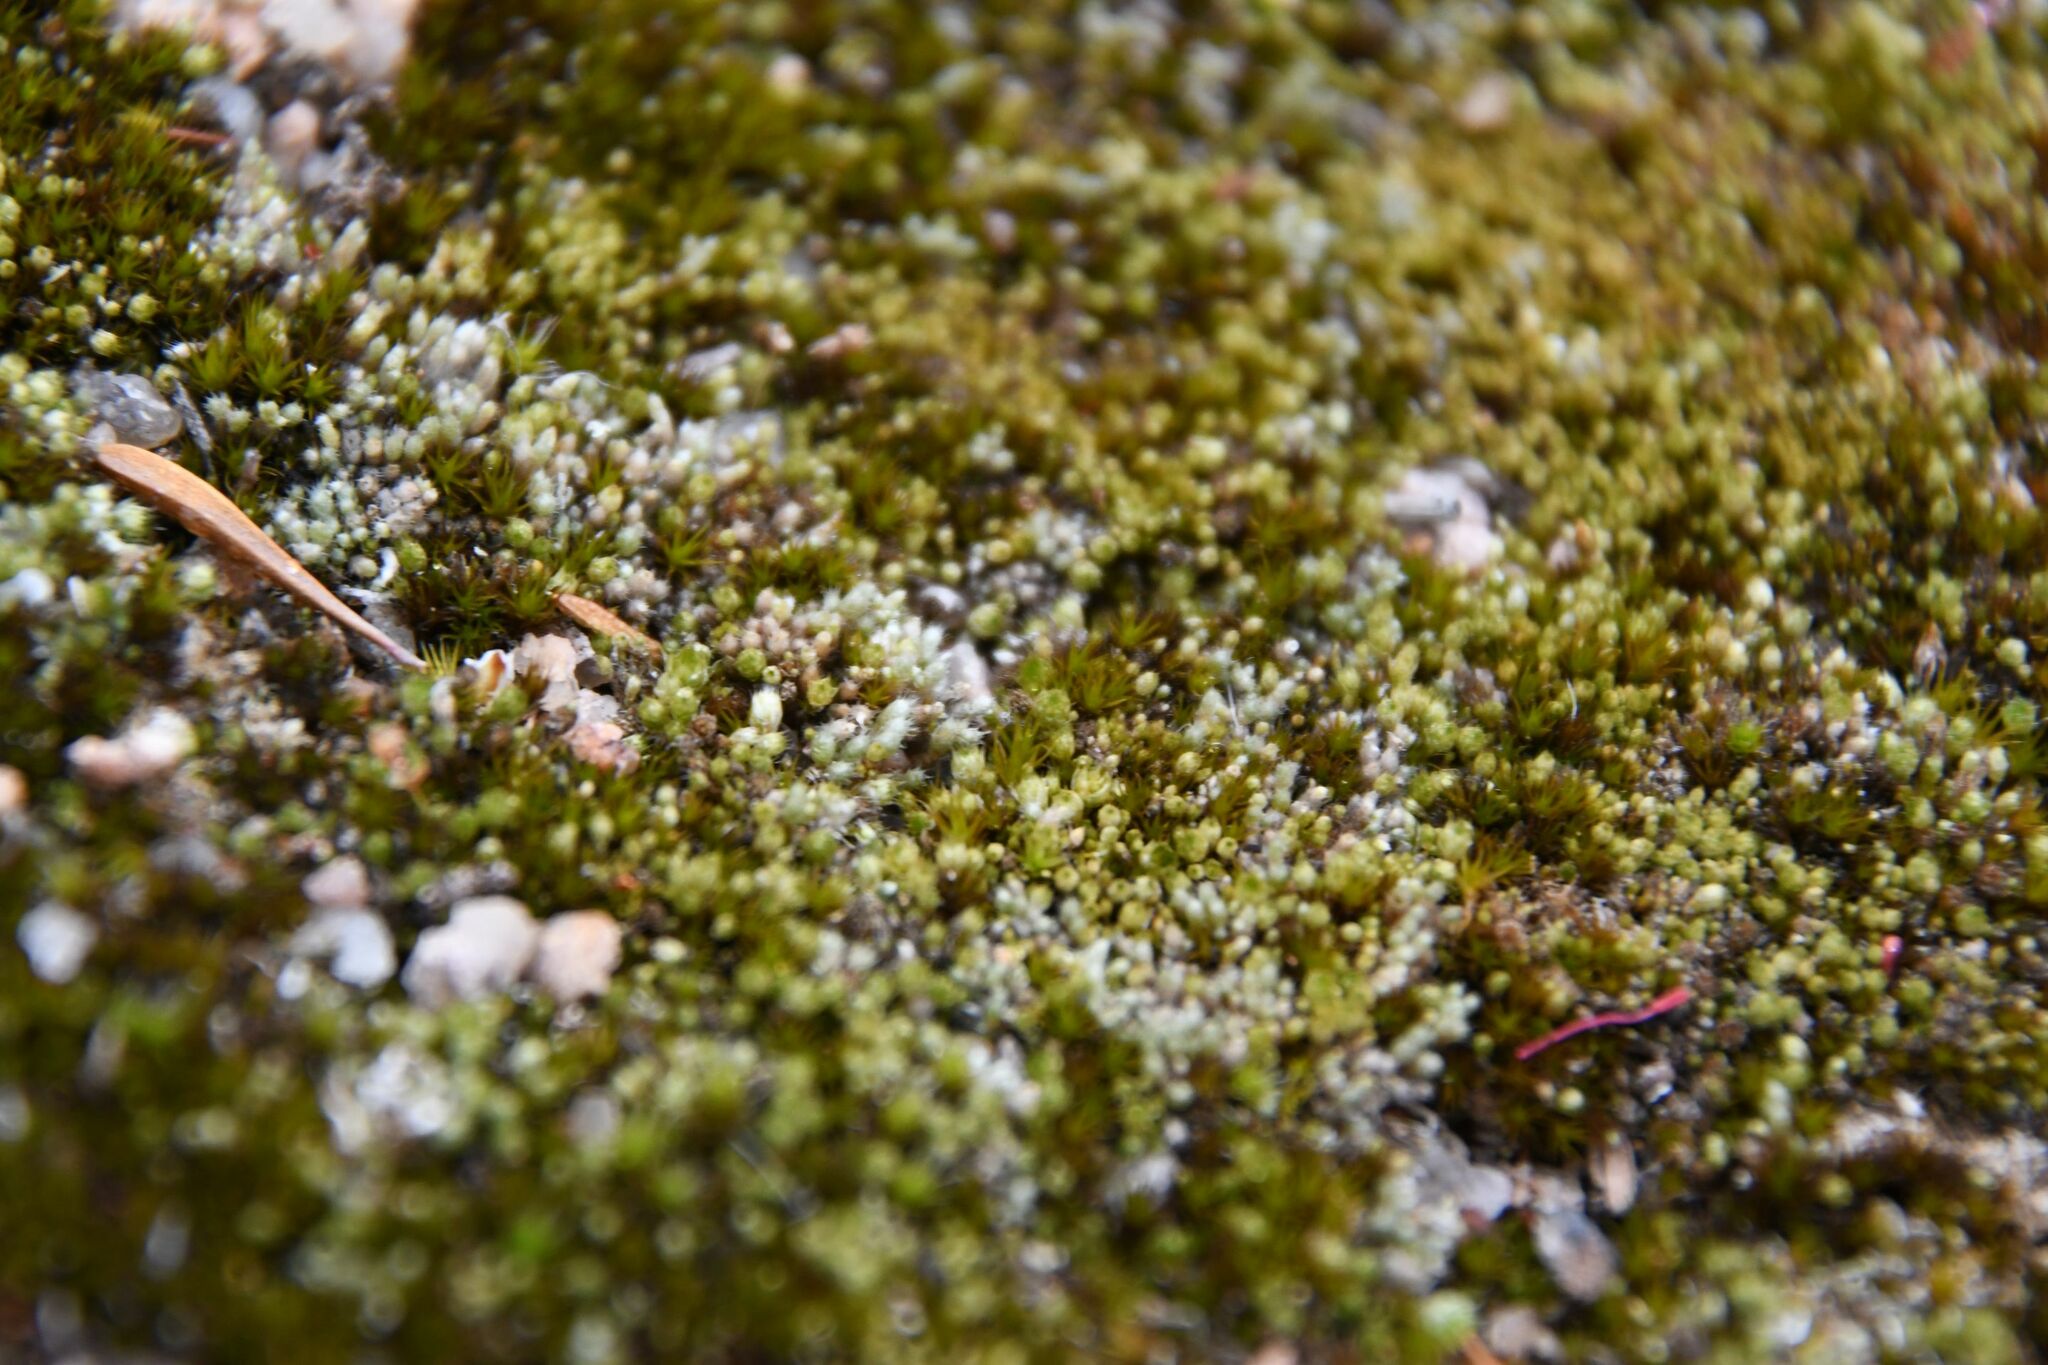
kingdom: Plantae
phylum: Bryophyta
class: Bryopsida
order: Gigaspermales
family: Gigaspermaceae
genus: Gigaspermum
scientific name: Gigaspermum repens
